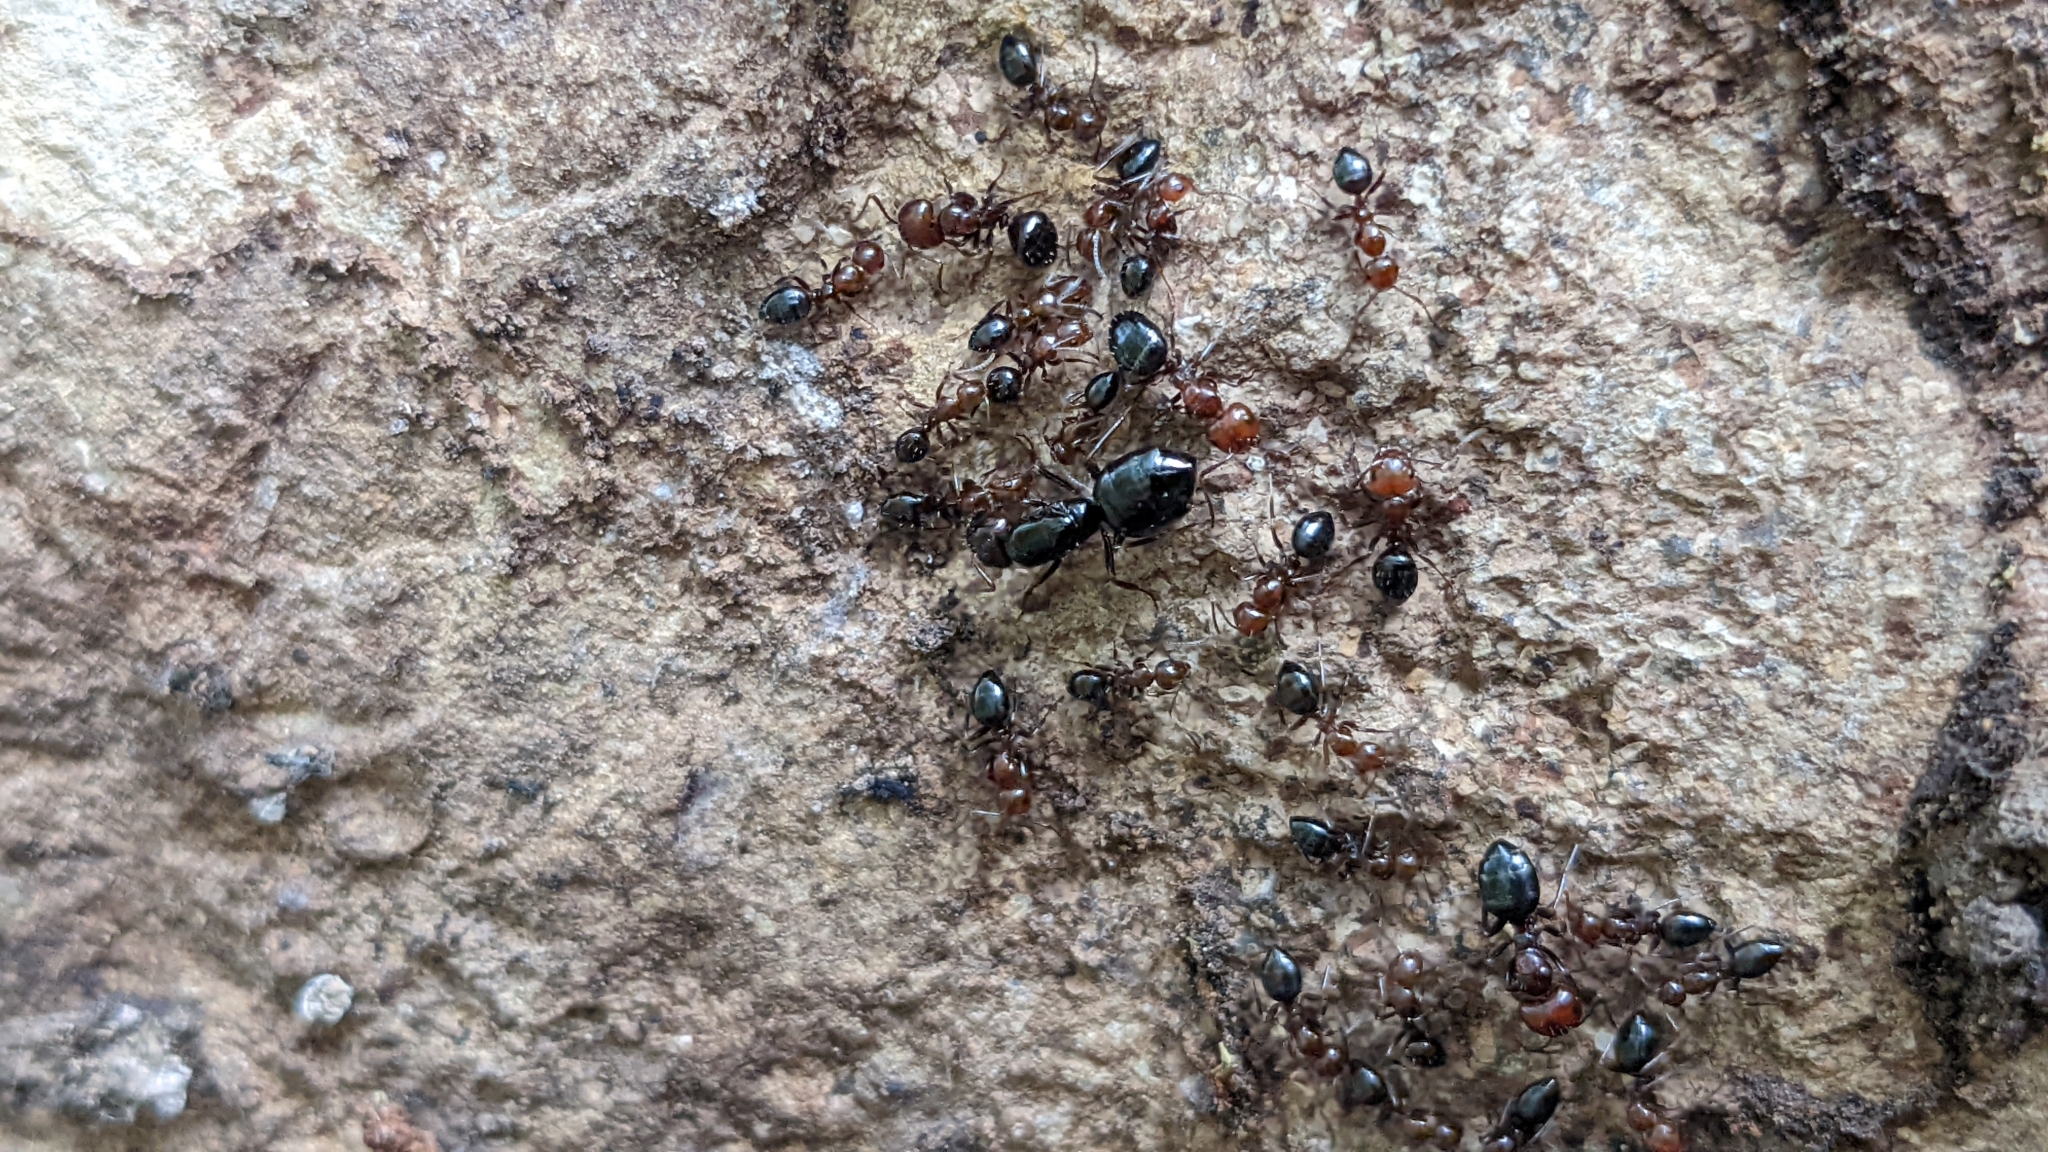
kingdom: Animalia
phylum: Arthropoda
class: Insecta
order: Hymenoptera
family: Formicidae
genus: Camponotus
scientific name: Camponotus lateralis
